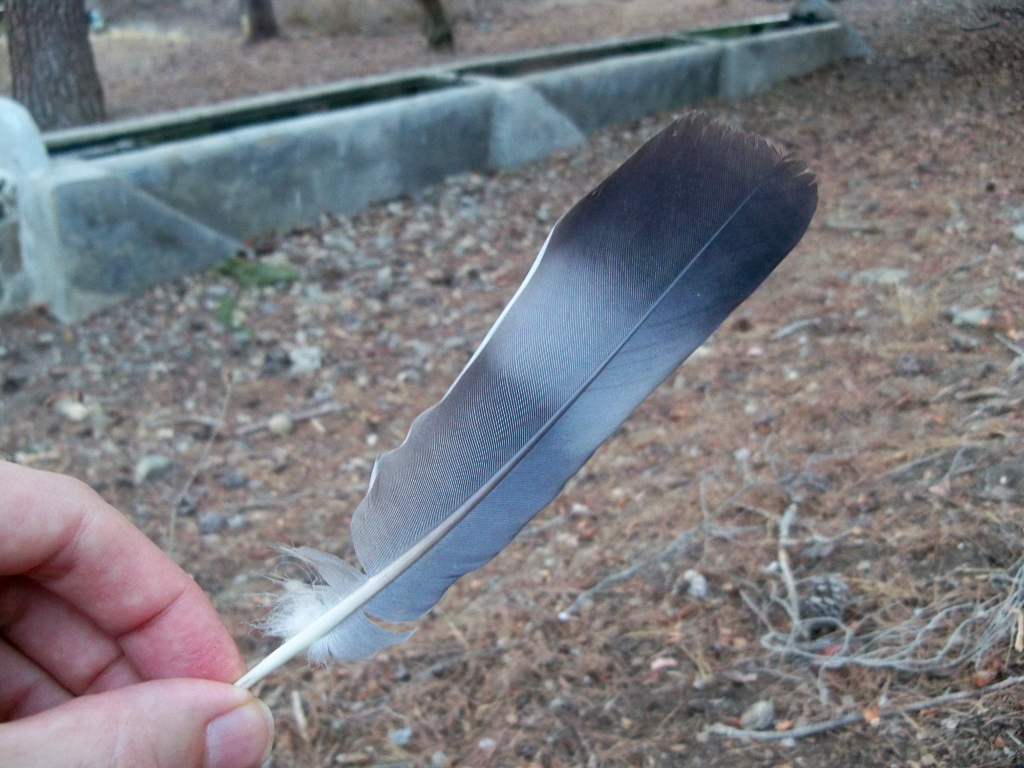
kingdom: Animalia
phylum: Chordata
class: Aves
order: Columbiformes
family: Columbidae
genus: Columba
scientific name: Columba palumbus
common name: Common wood pigeon
